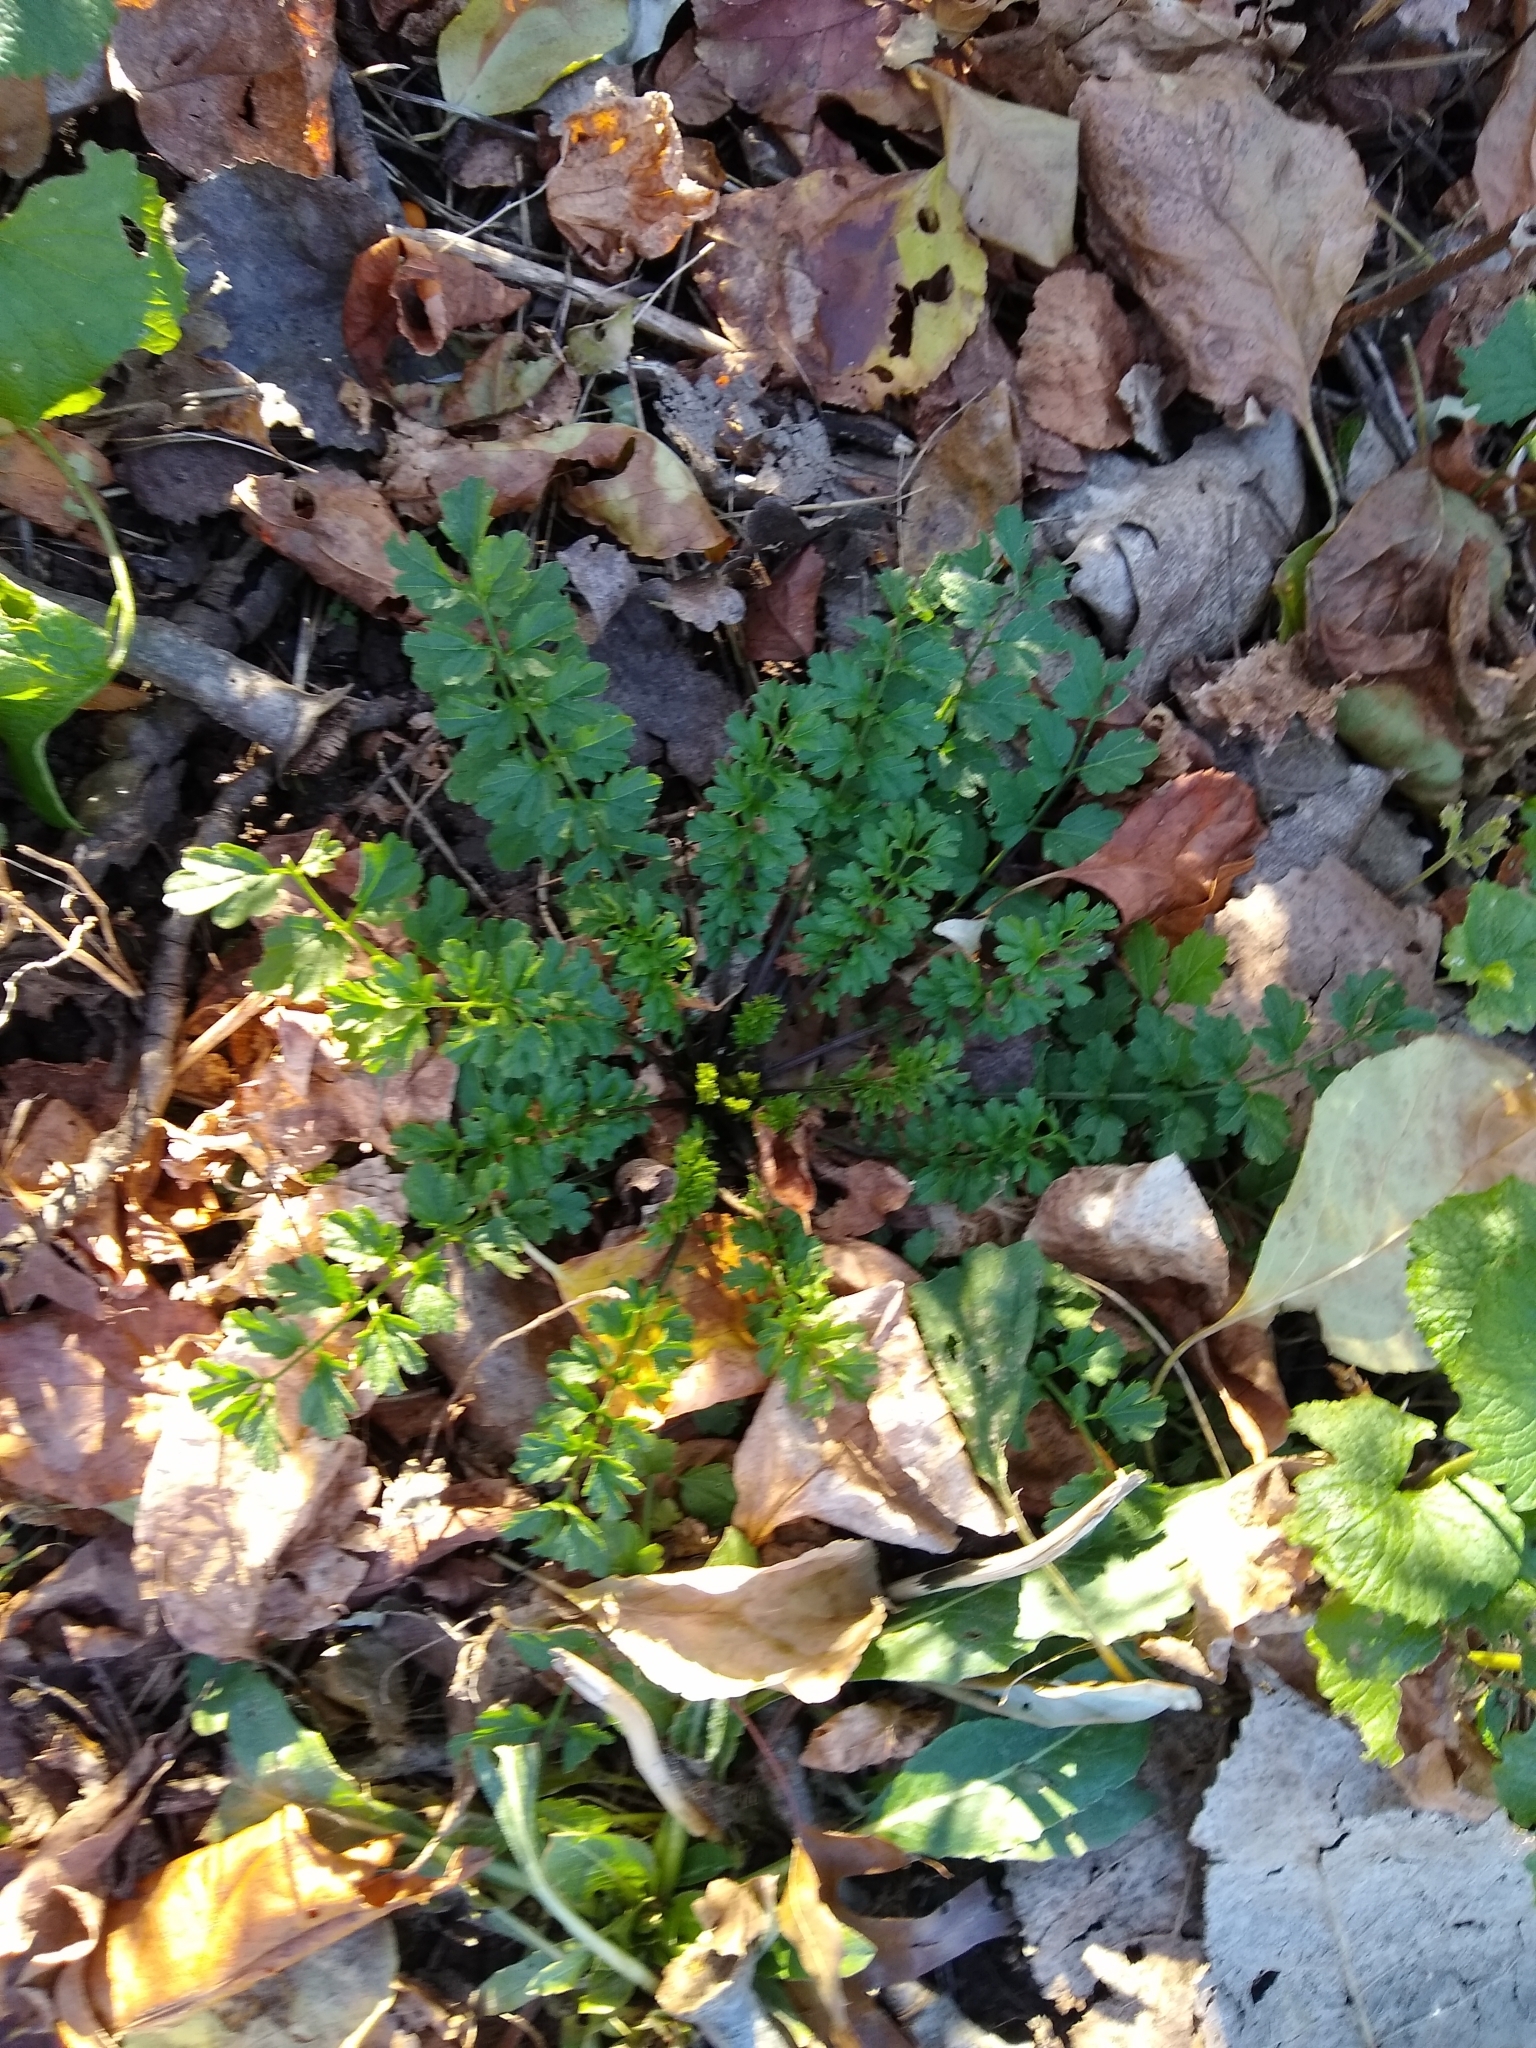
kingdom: Plantae
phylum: Tracheophyta
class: Magnoliopsida
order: Brassicales
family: Brassicaceae
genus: Cardamine
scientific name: Cardamine impatiens
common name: Narrow-leaved bitter-cress
